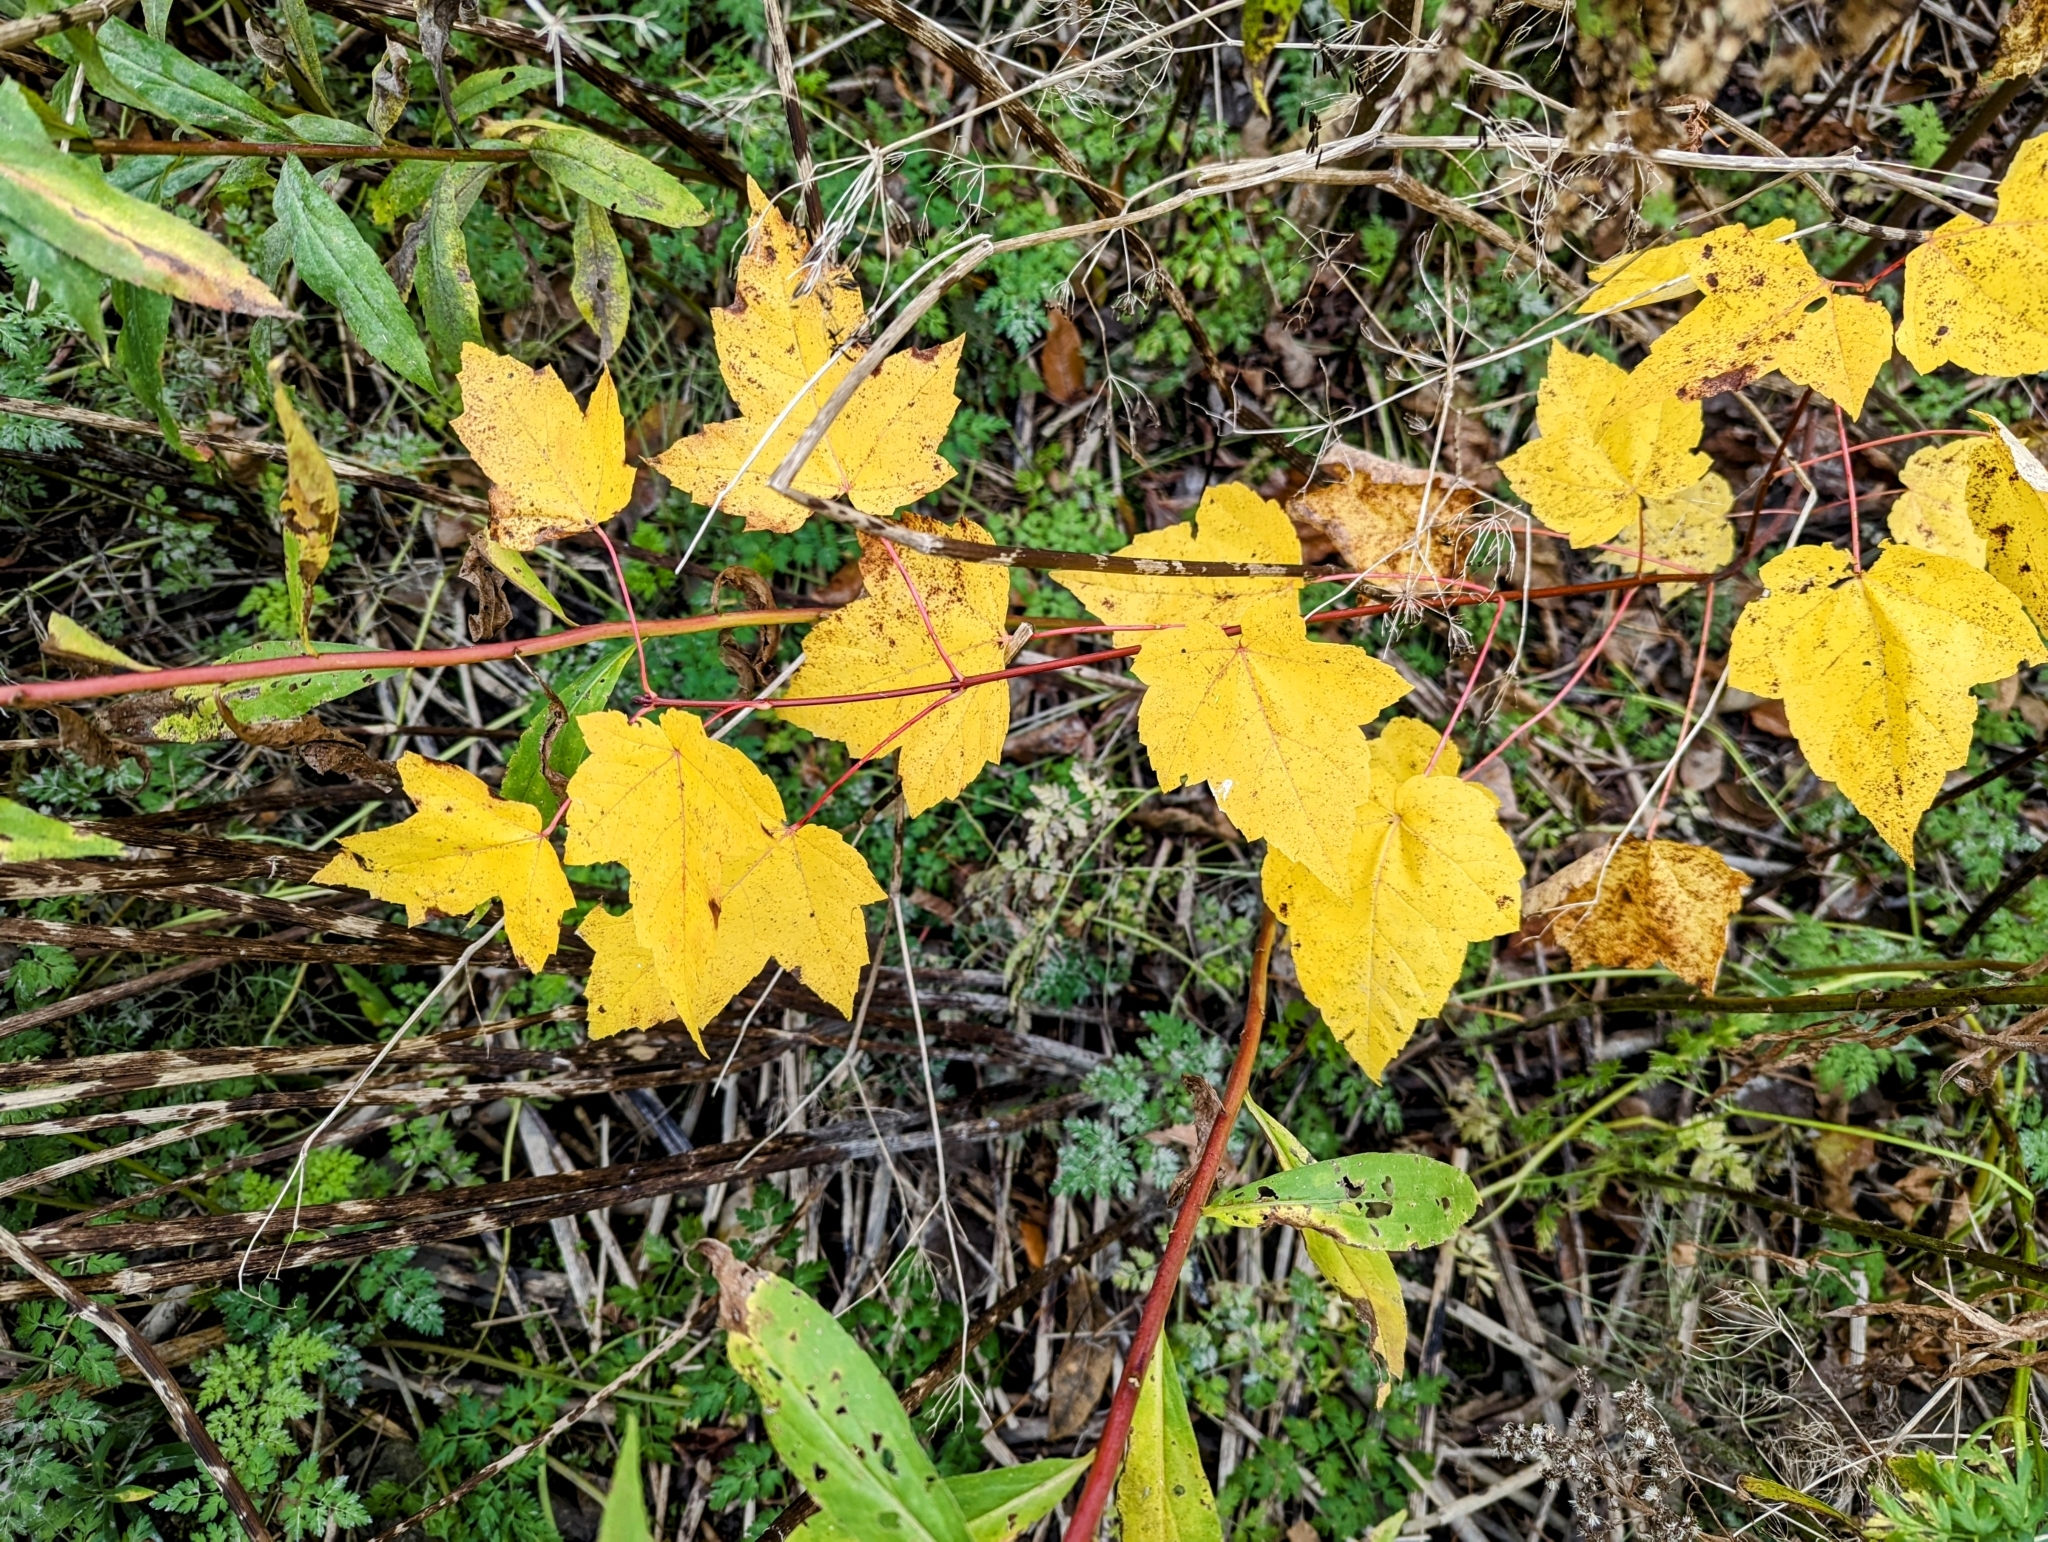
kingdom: Plantae
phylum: Tracheophyta
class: Magnoliopsida
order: Sapindales
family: Sapindaceae
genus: Acer
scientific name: Acer rubrum
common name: Red maple
